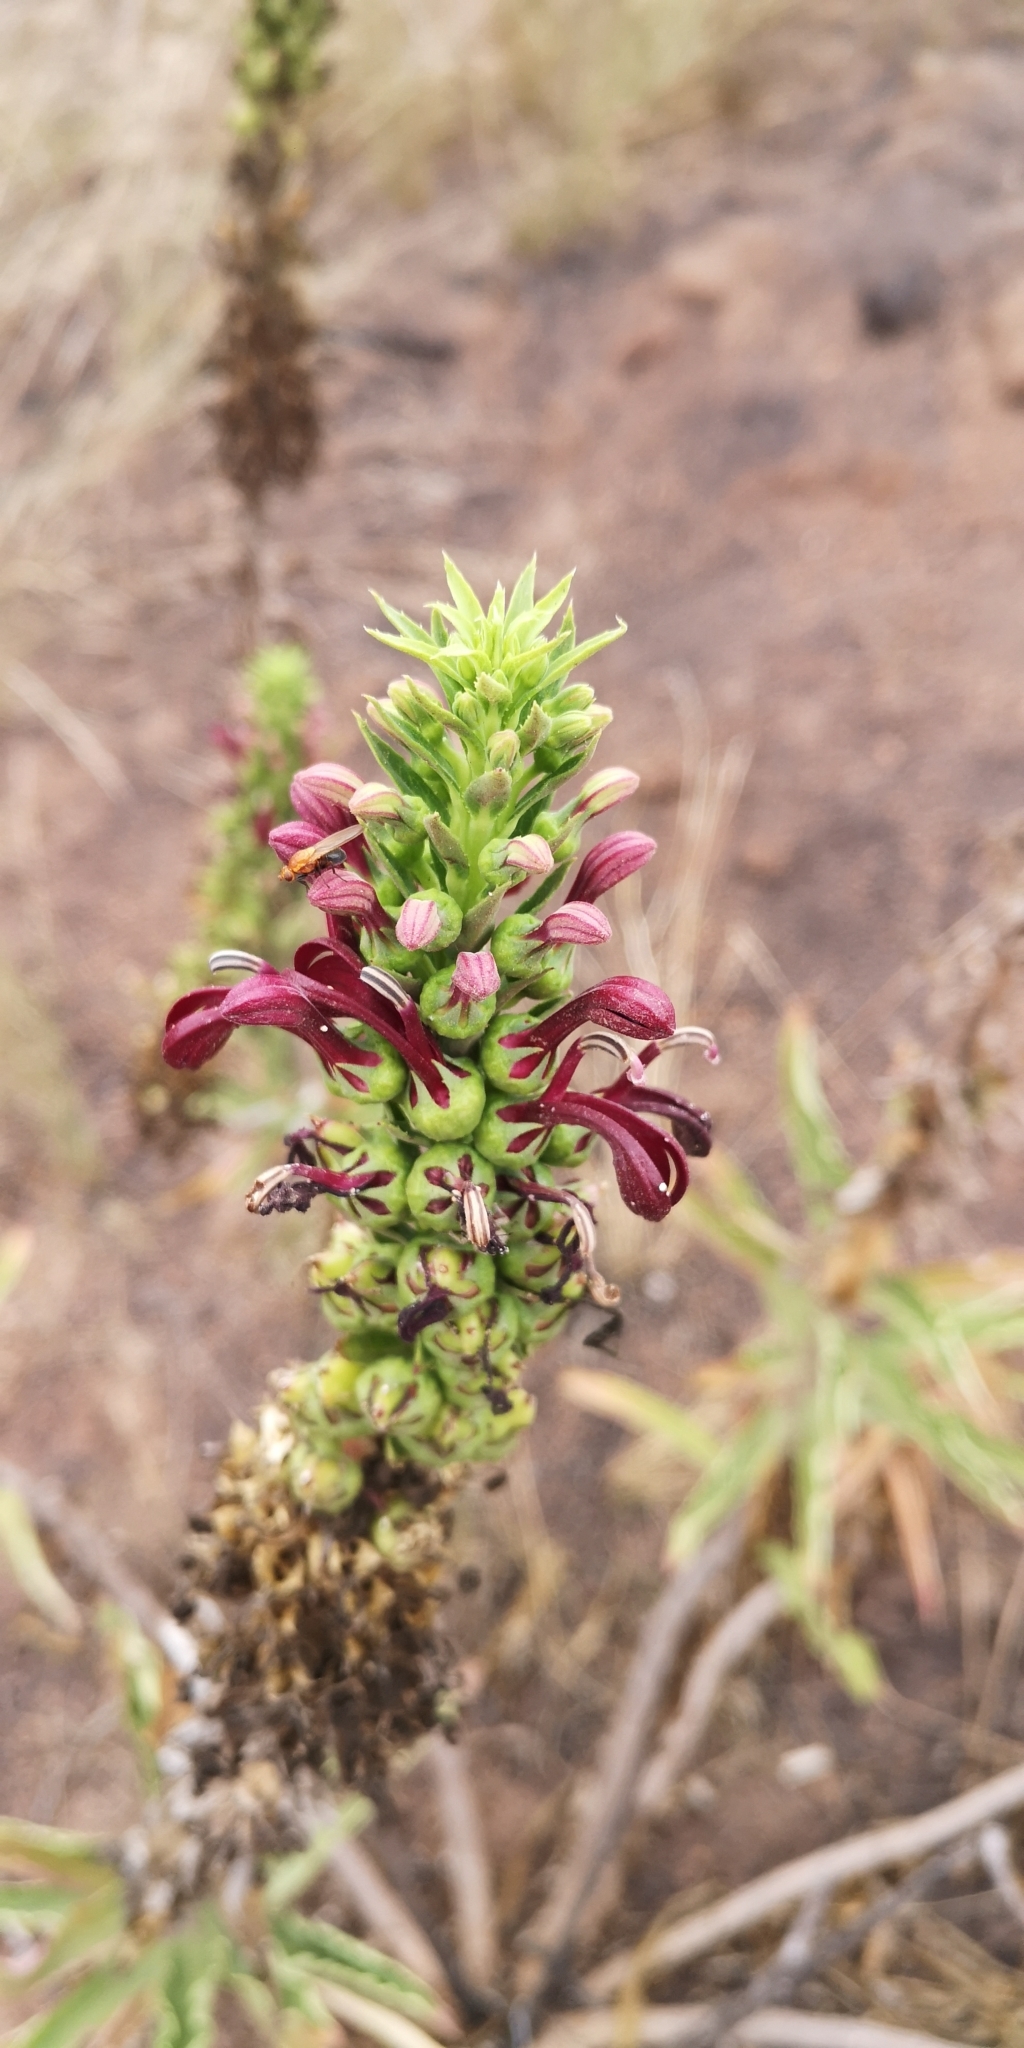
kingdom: Plantae
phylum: Tracheophyta
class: Magnoliopsida
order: Asterales
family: Campanulaceae
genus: Lobelia
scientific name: Lobelia polyphylla
